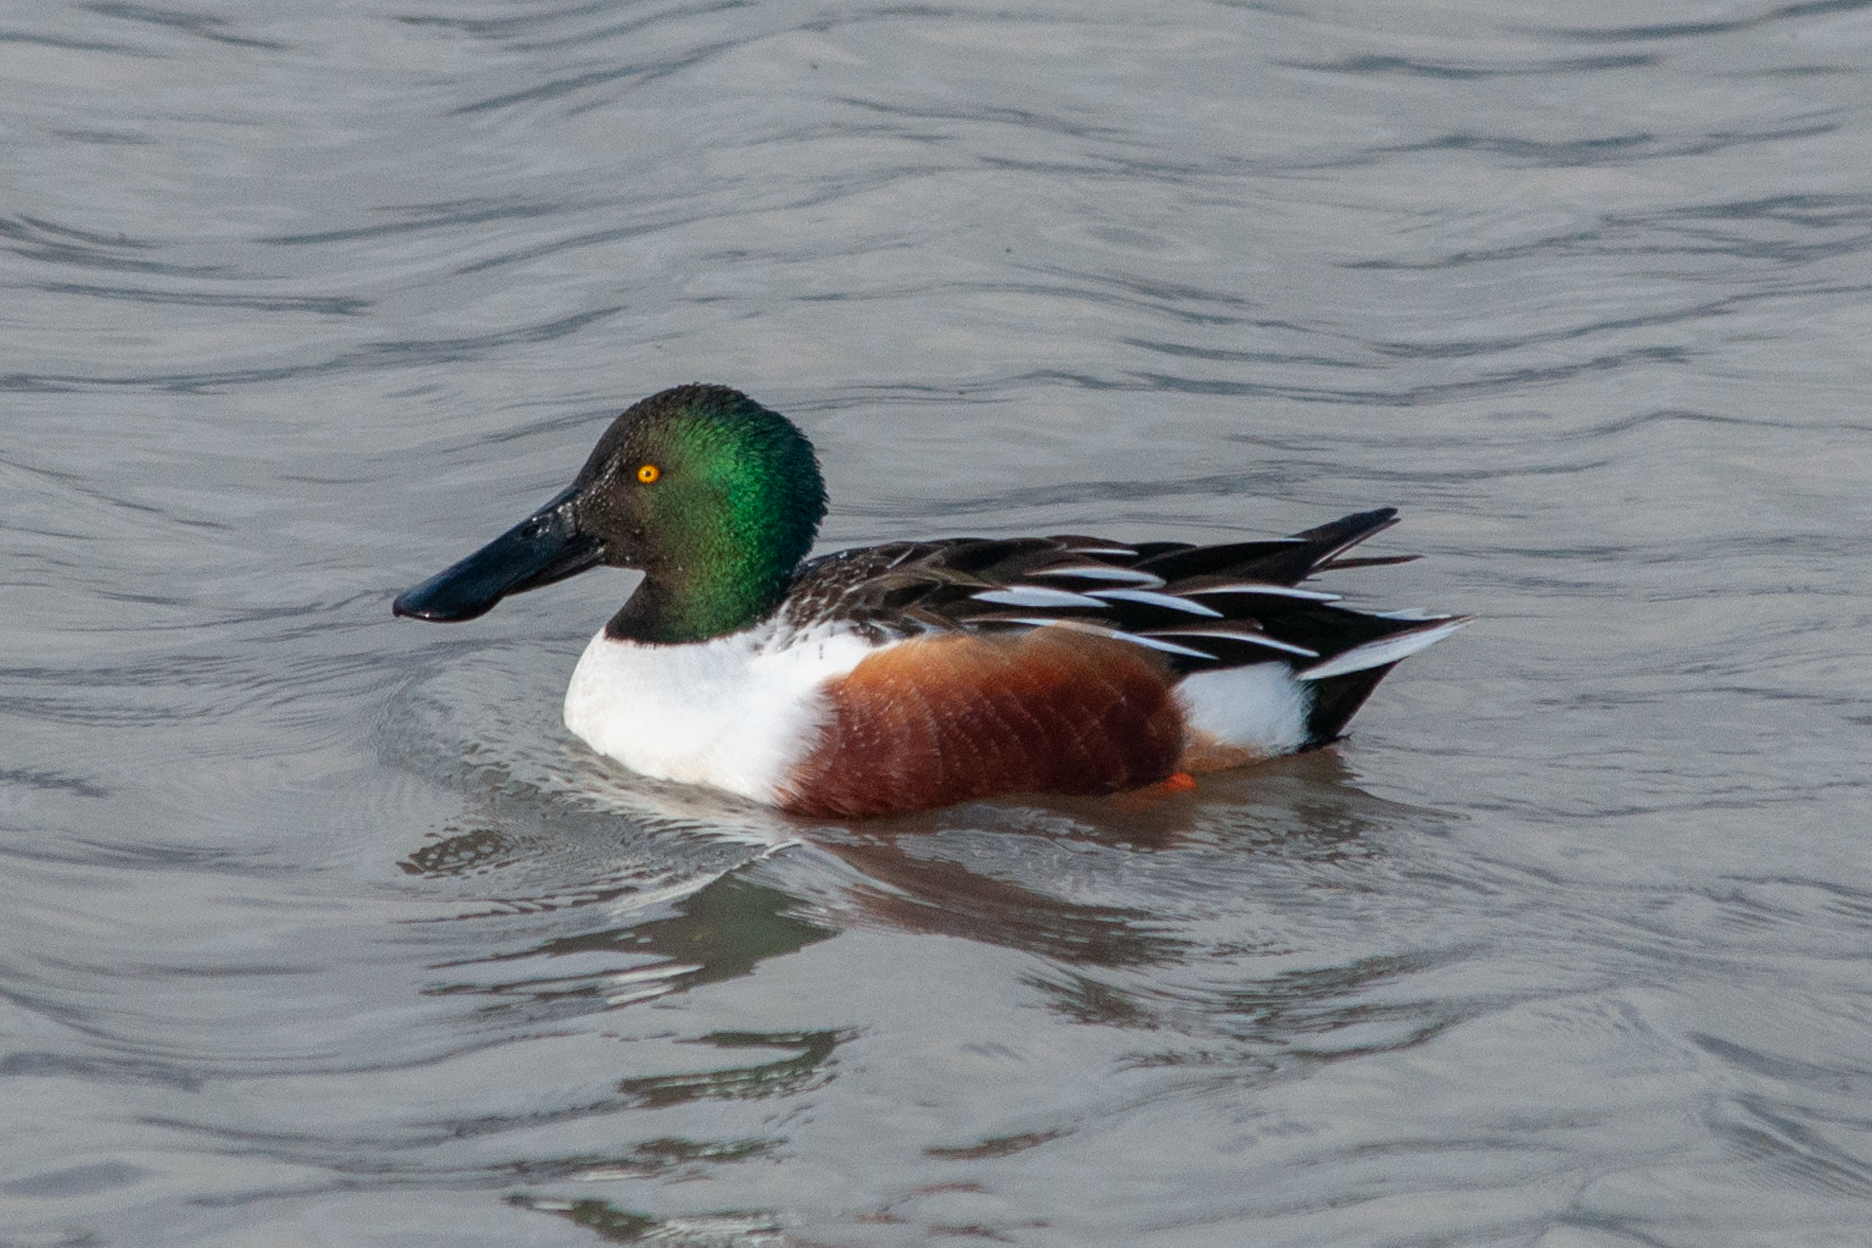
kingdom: Animalia
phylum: Chordata
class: Aves
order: Anseriformes
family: Anatidae
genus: Spatula
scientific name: Spatula clypeata
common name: Northern shoveler
